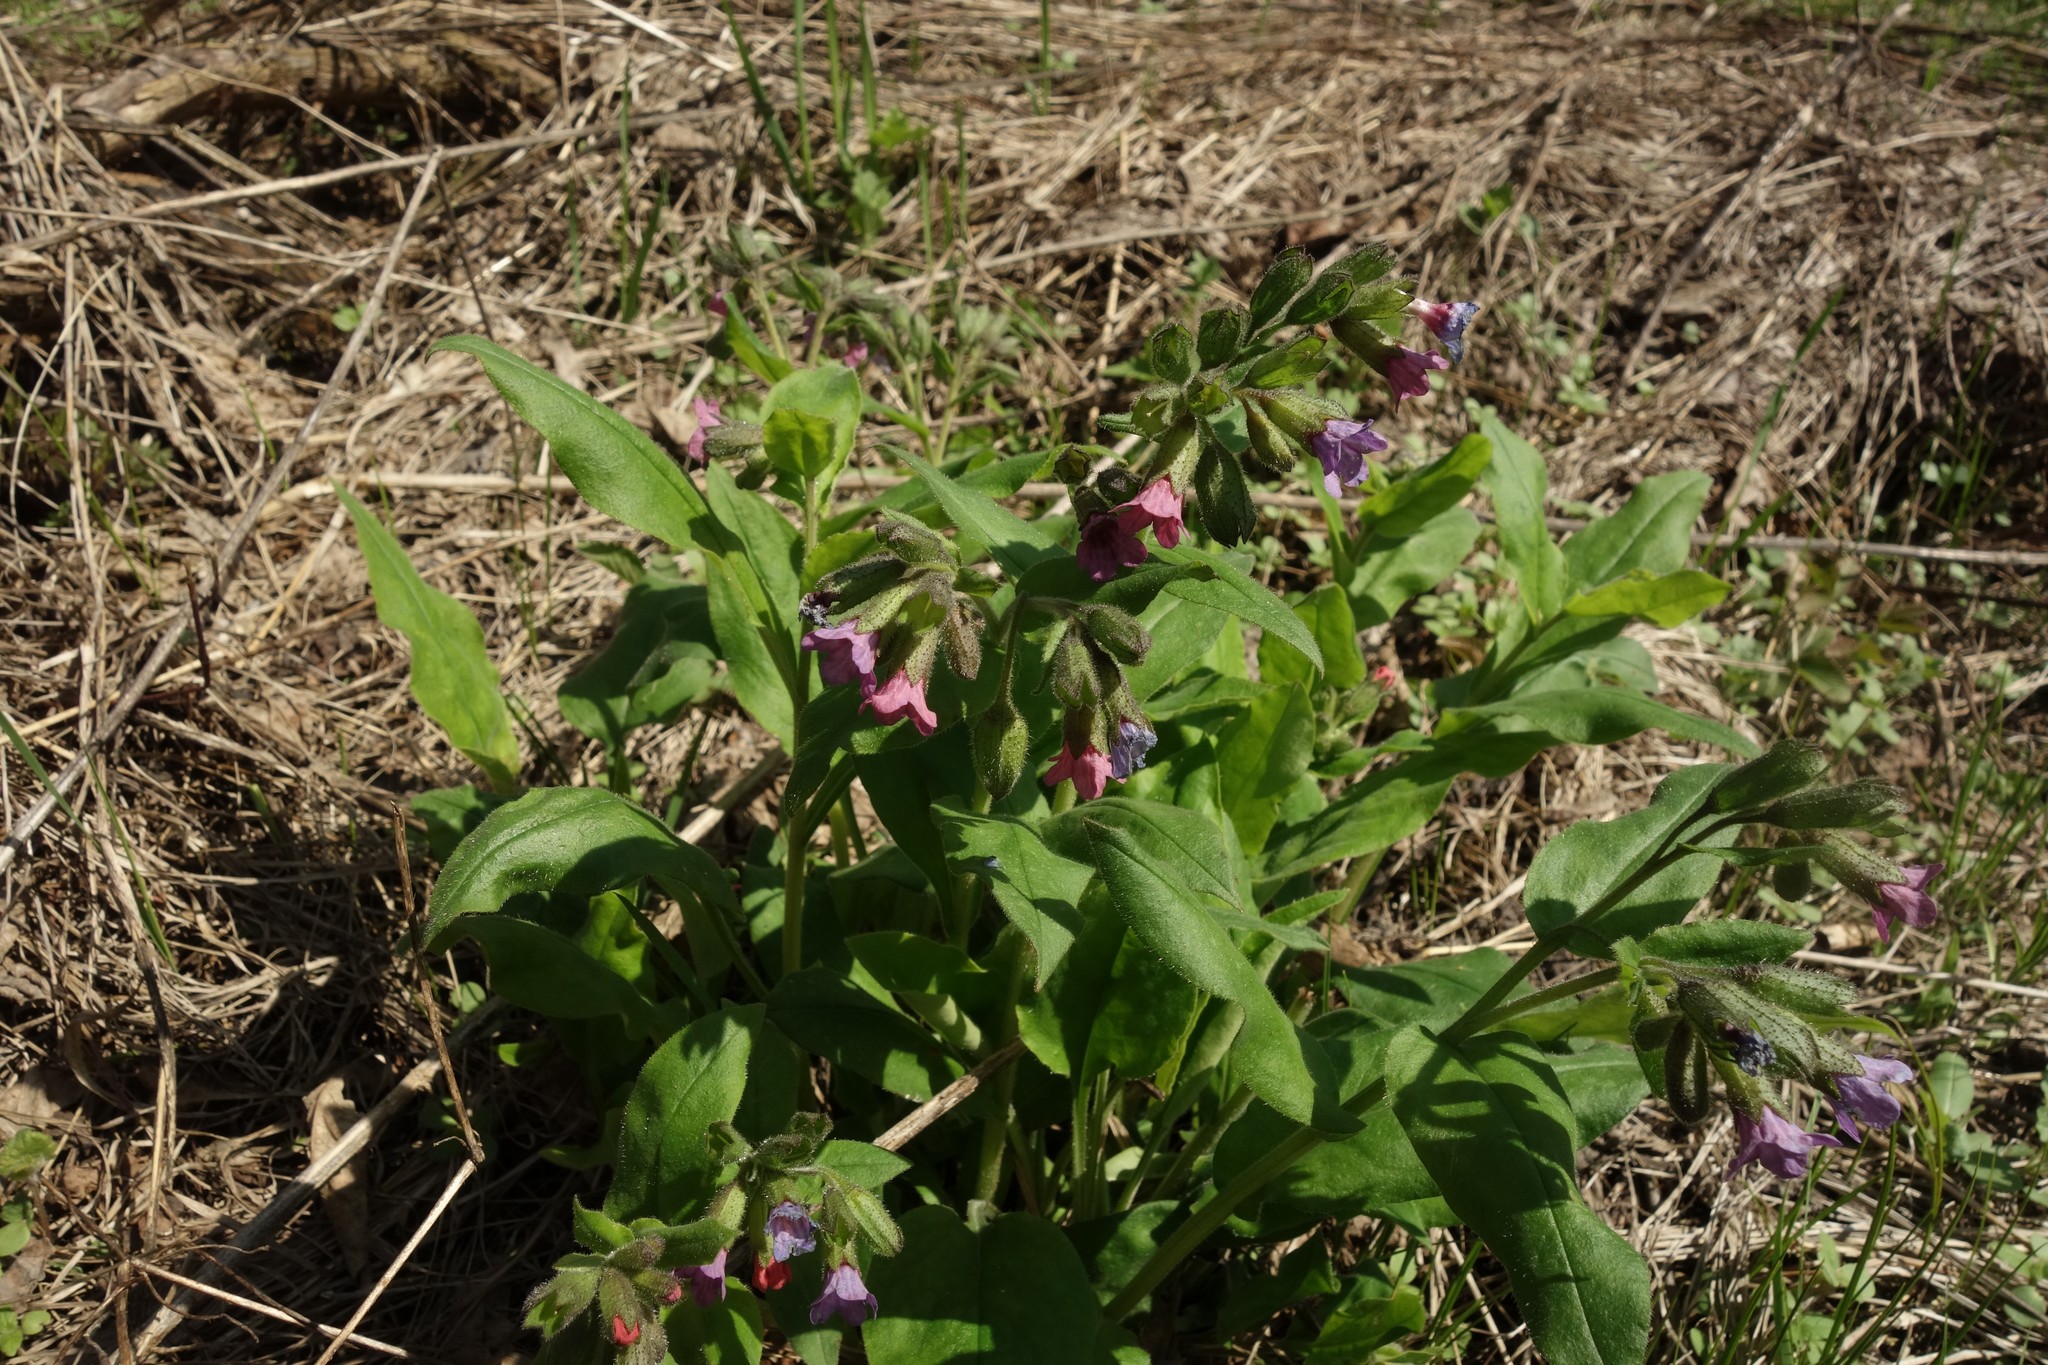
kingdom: Plantae
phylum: Tracheophyta
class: Magnoliopsida
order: Boraginales
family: Boraginaceae
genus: Pulmonaria
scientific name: Pulmonaria obscura
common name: Suffolk lungwort
